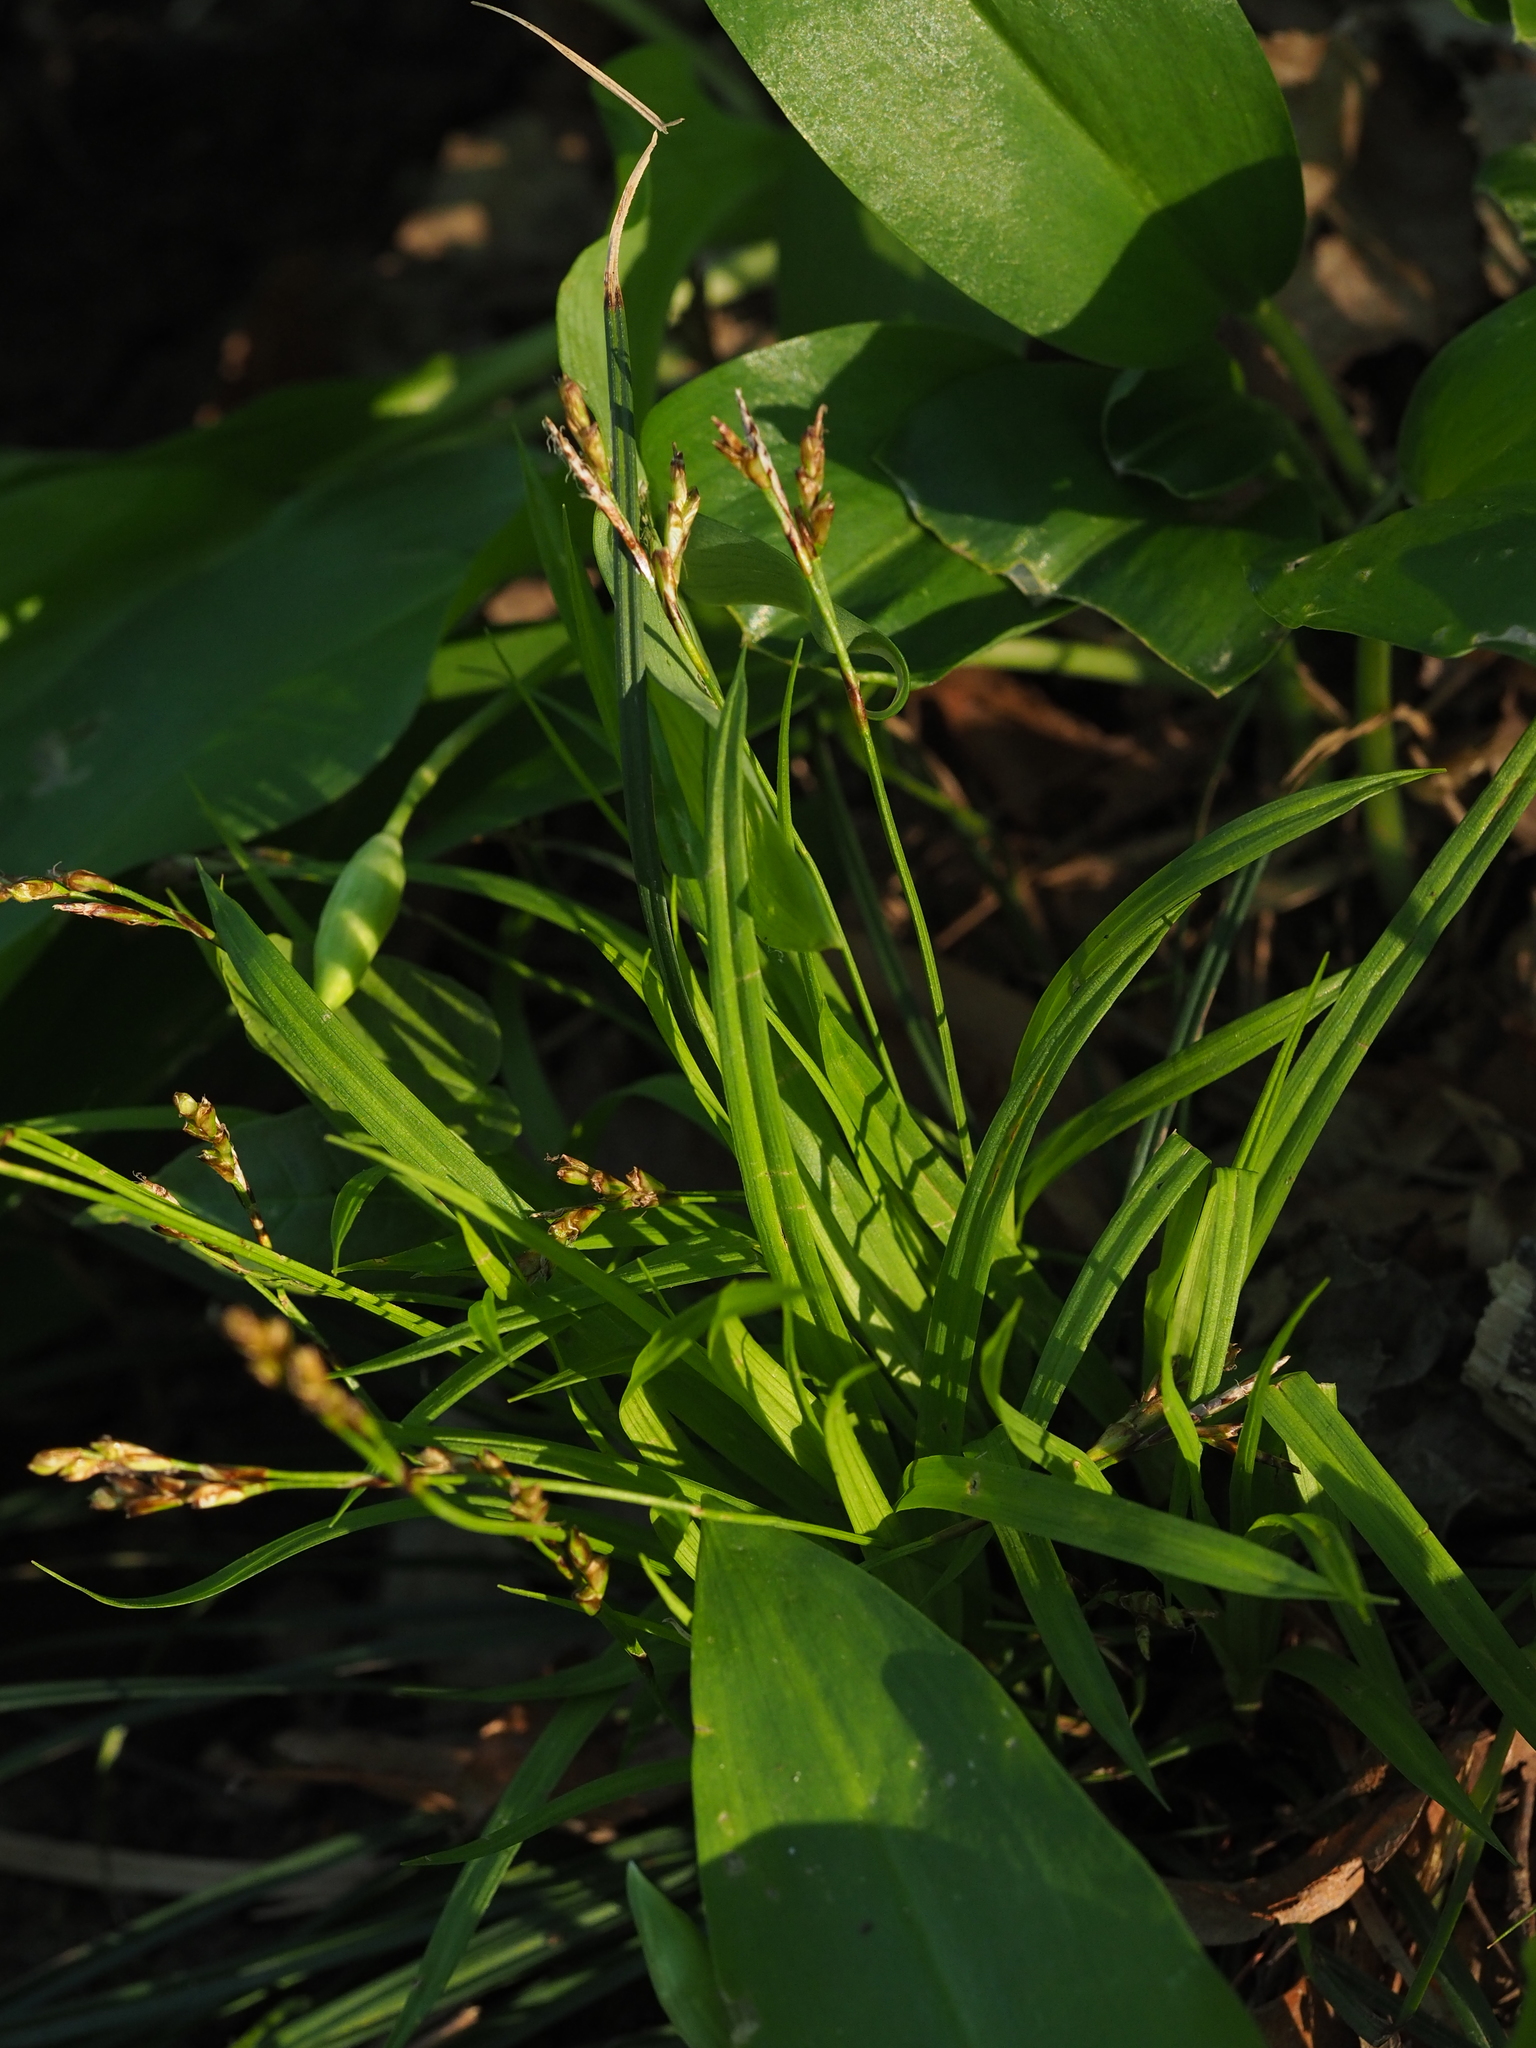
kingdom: Plantae
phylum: Tracheophyta
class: Liliopsida
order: Poales
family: Cyperaceae
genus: Carex
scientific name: Carex digitata
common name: Fingered sedge
